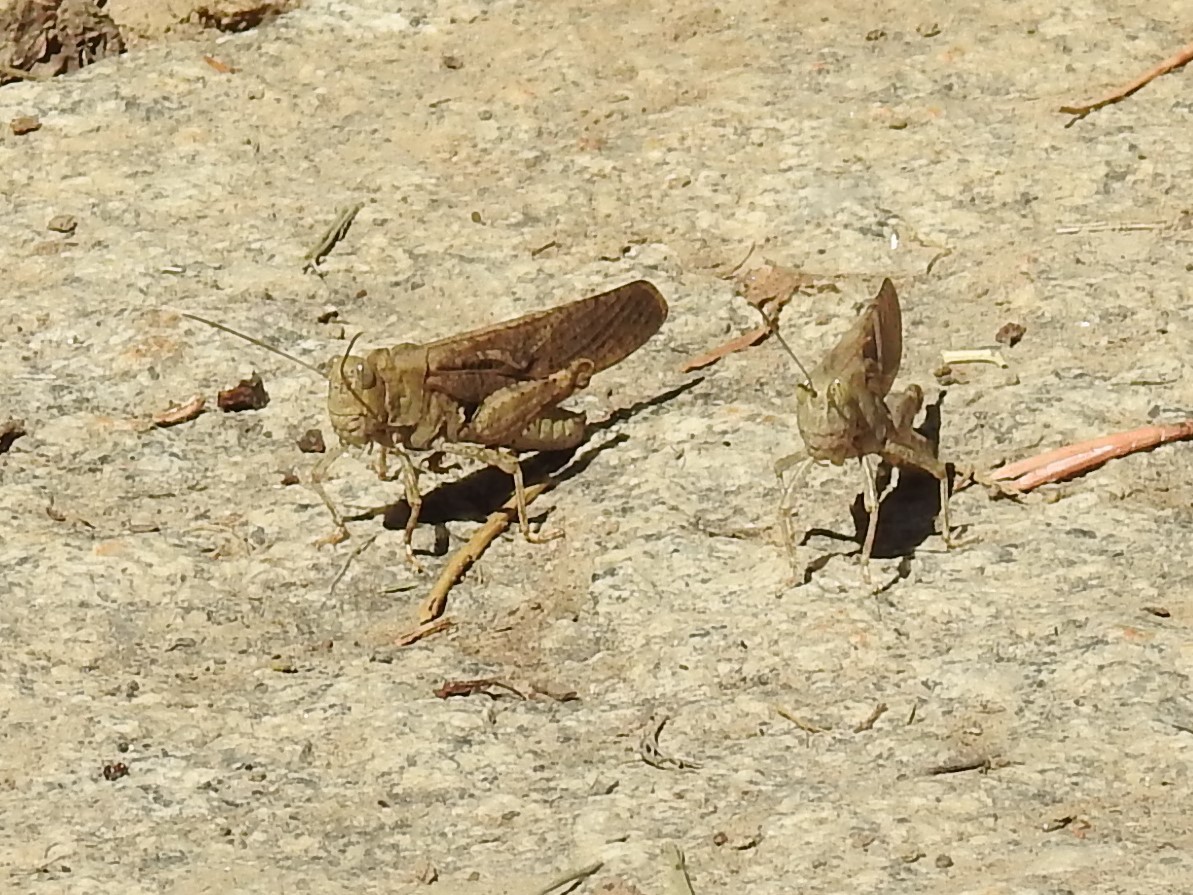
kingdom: Animalia
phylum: Arthropoda
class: Insecta
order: Orthoptera
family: Acrididae
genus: Dissosteira
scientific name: Dissosteira carolina
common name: Carolina grasshopper
